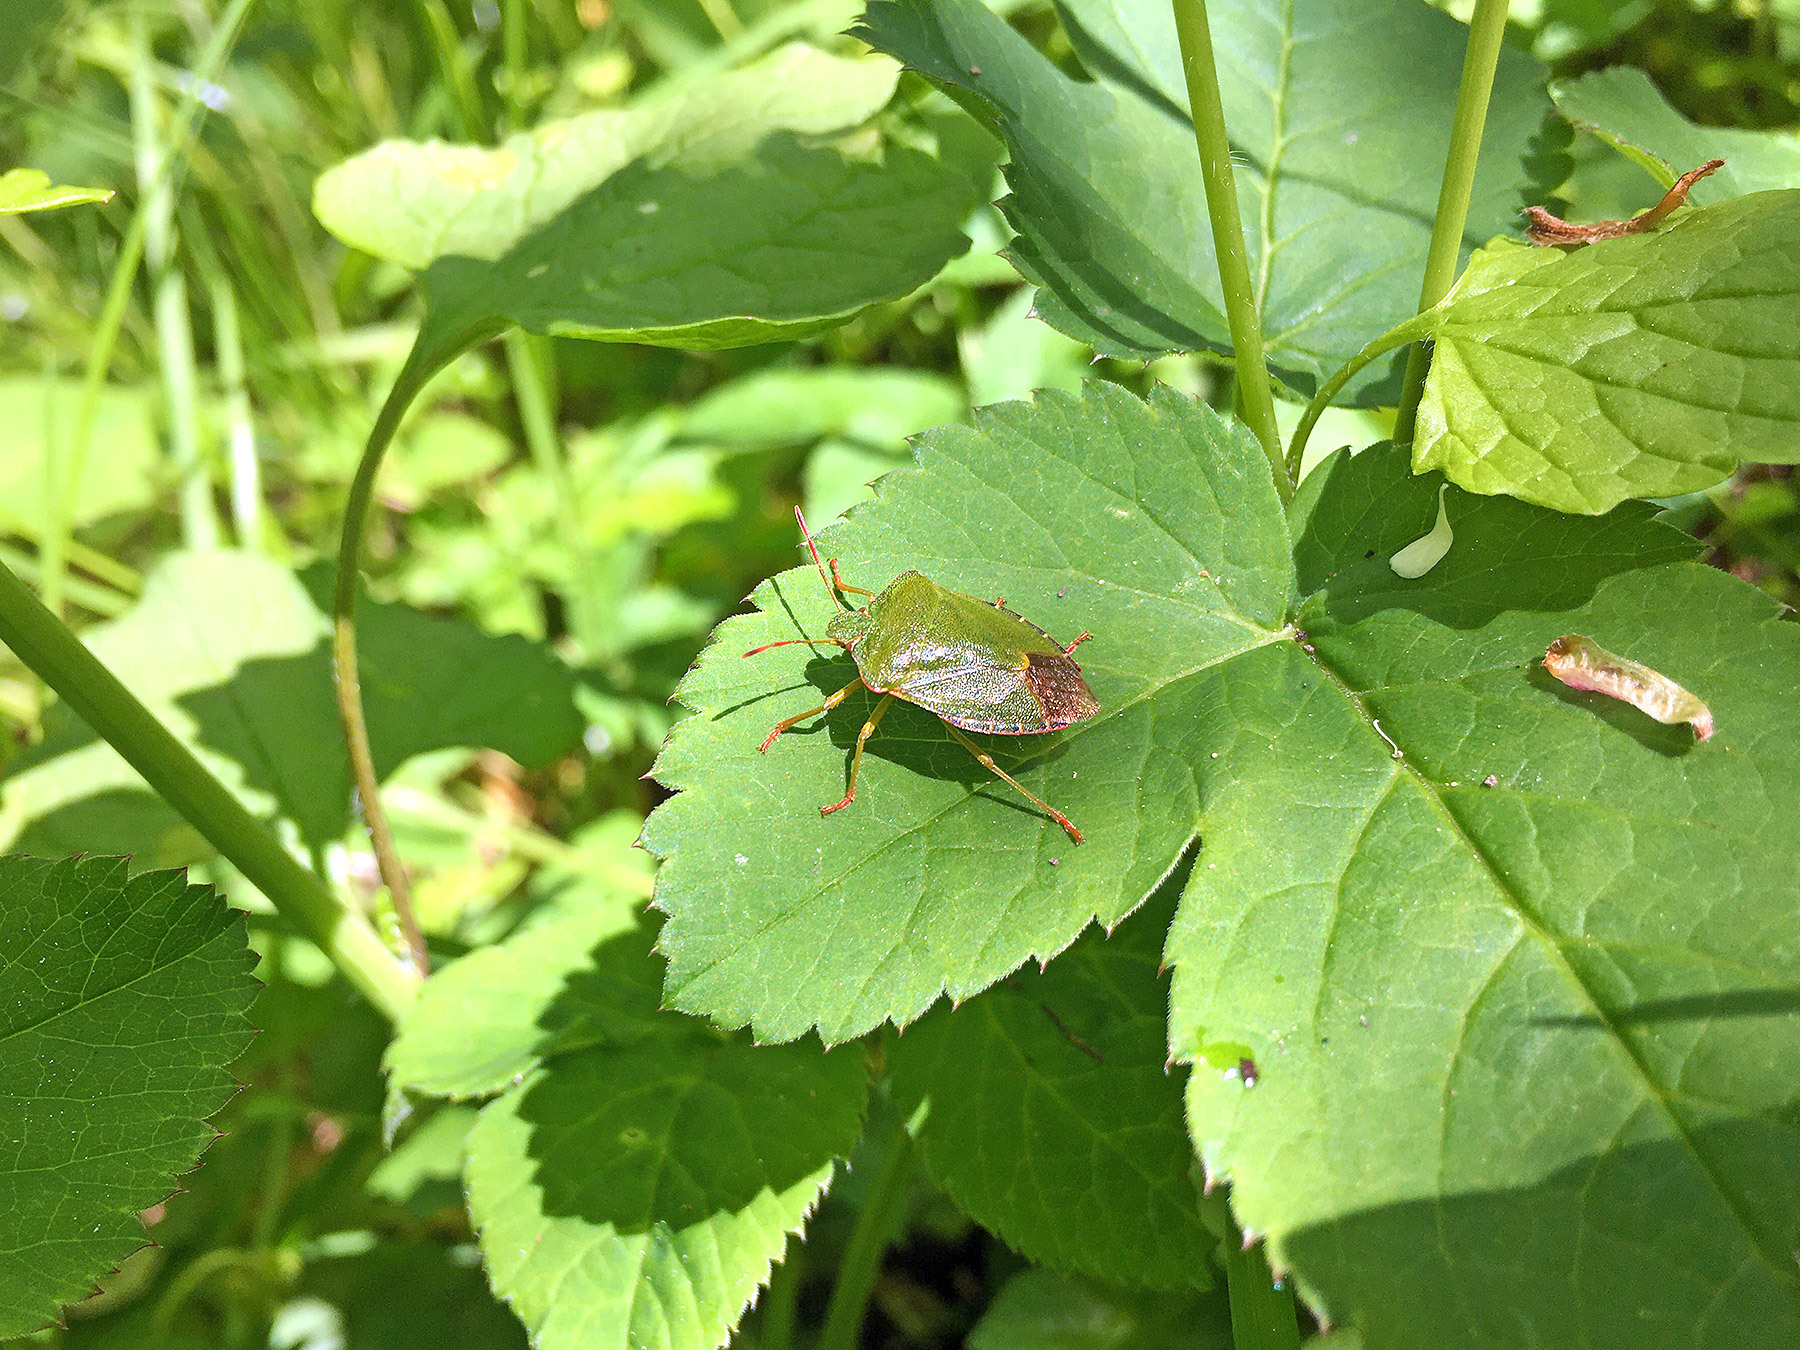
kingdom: Animalia
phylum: Arthropoda
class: Insecta
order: Hemiptera
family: Pentatomidae
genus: Palomena
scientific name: Palomena prasina
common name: Green shieldbug
